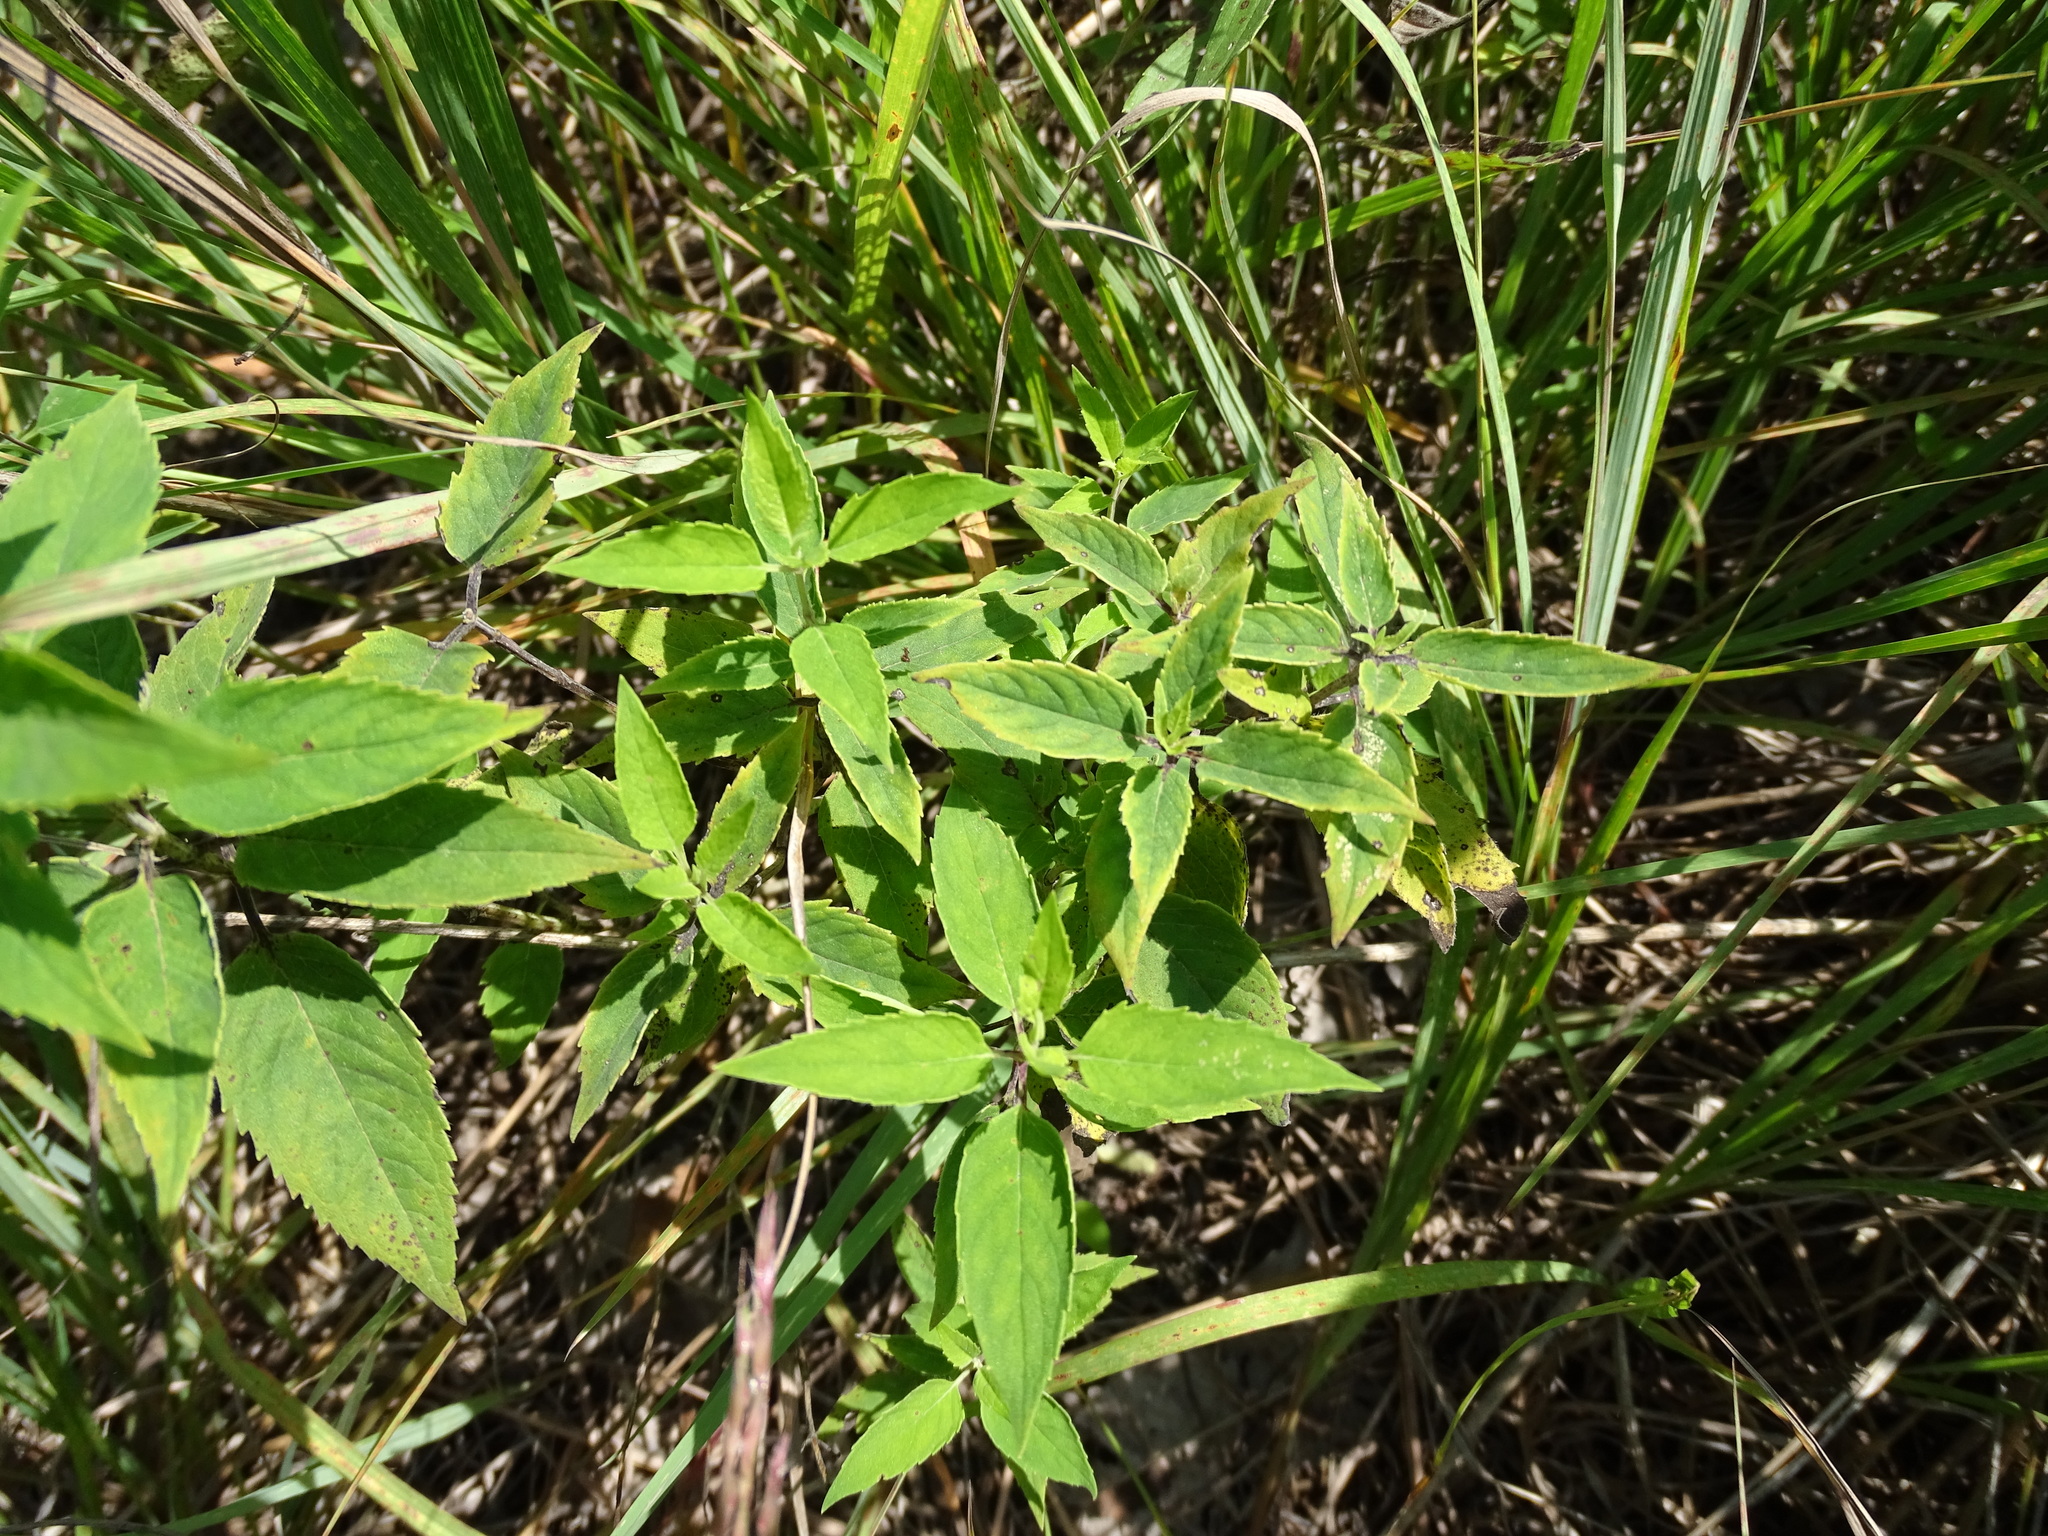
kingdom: Plantae
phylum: Tracheophyta
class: Magnoliopsida
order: Lamiales
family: Lamiaceae
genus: Monarda
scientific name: Monarda fistulosa
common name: Purple beebalm
